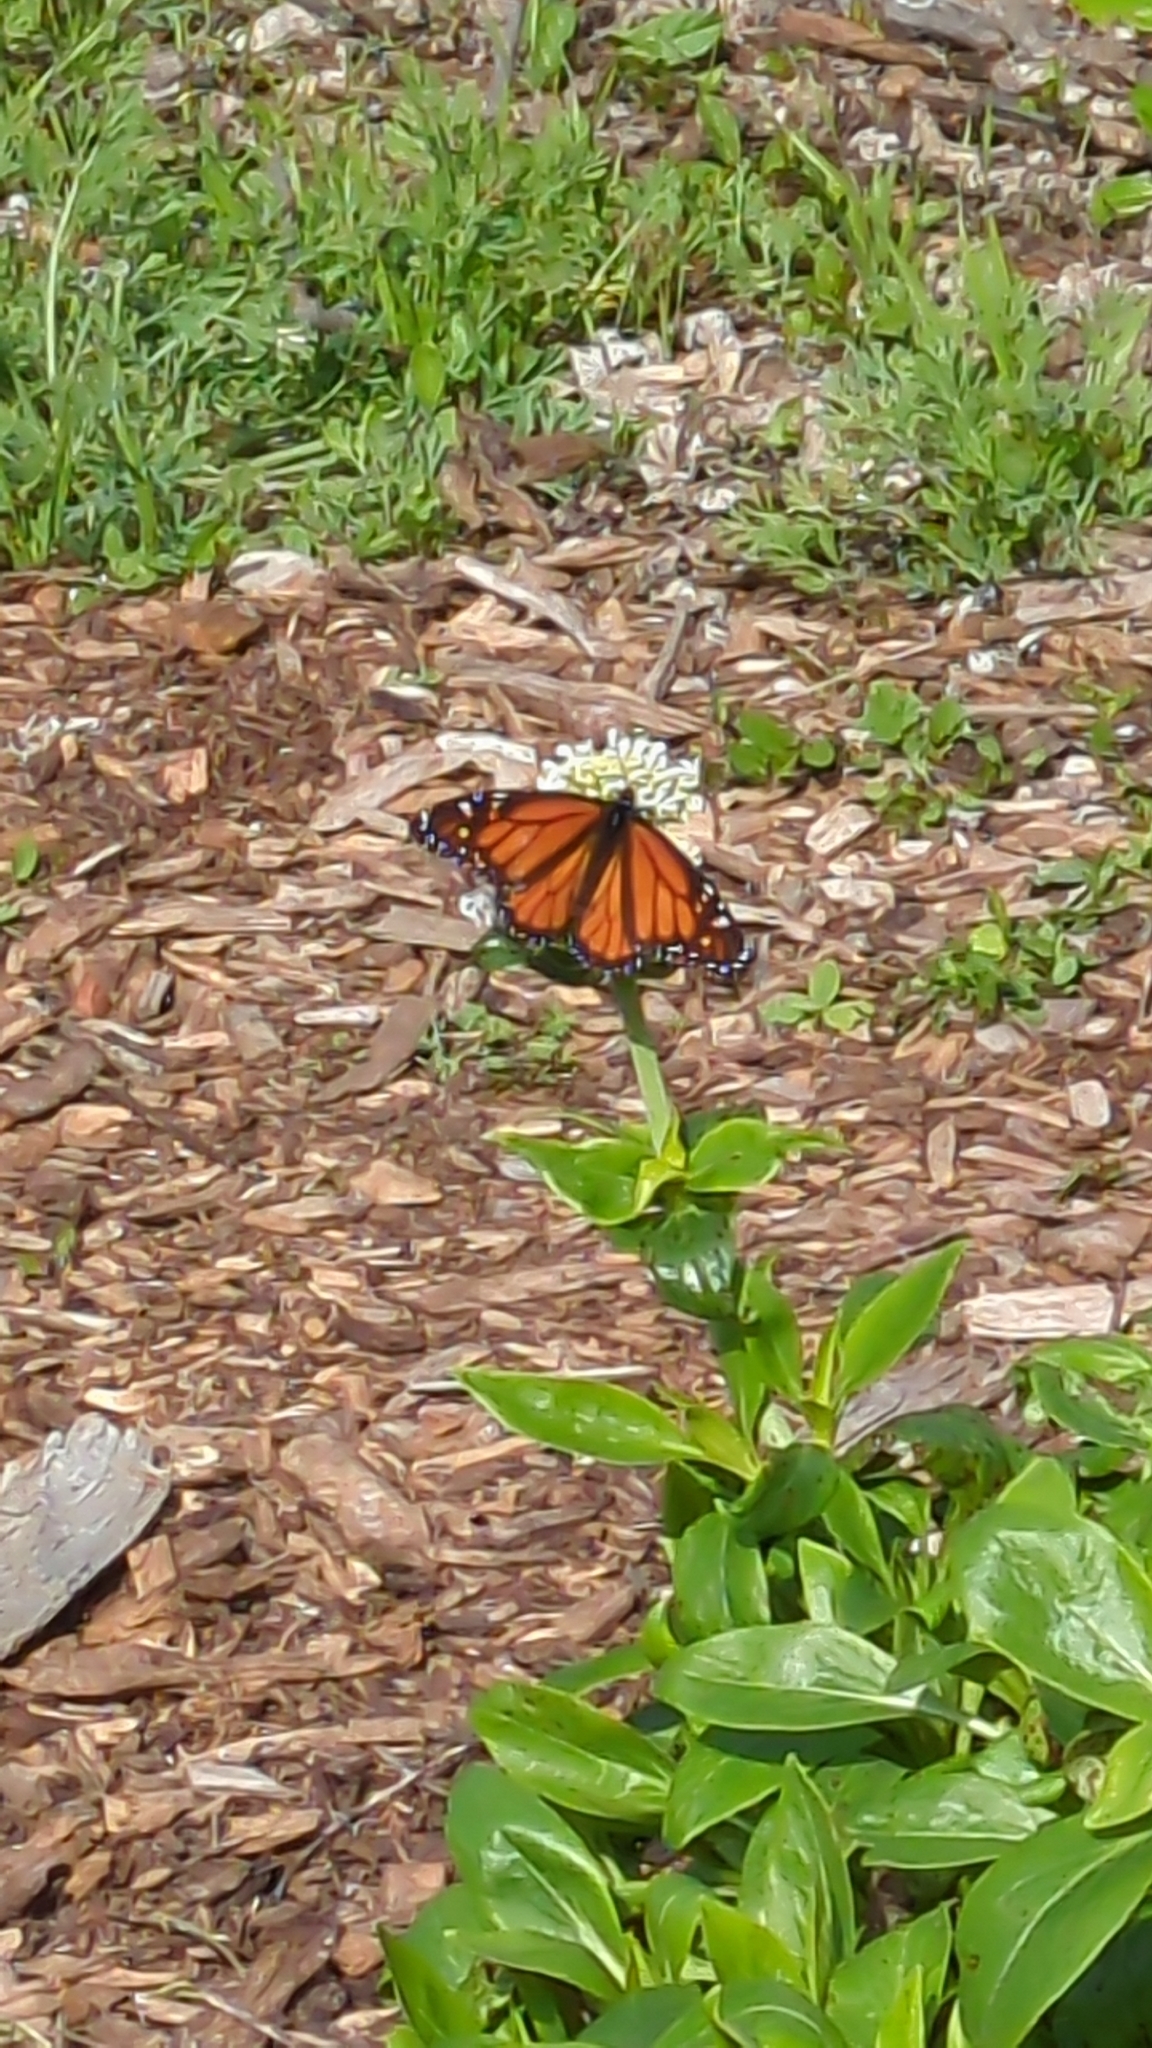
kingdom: Animalia
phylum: Arthropoda
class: Insecta
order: Lepidoptera
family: Nymphalidae
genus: Danaus
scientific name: Danaus plexippus
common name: Monarch
